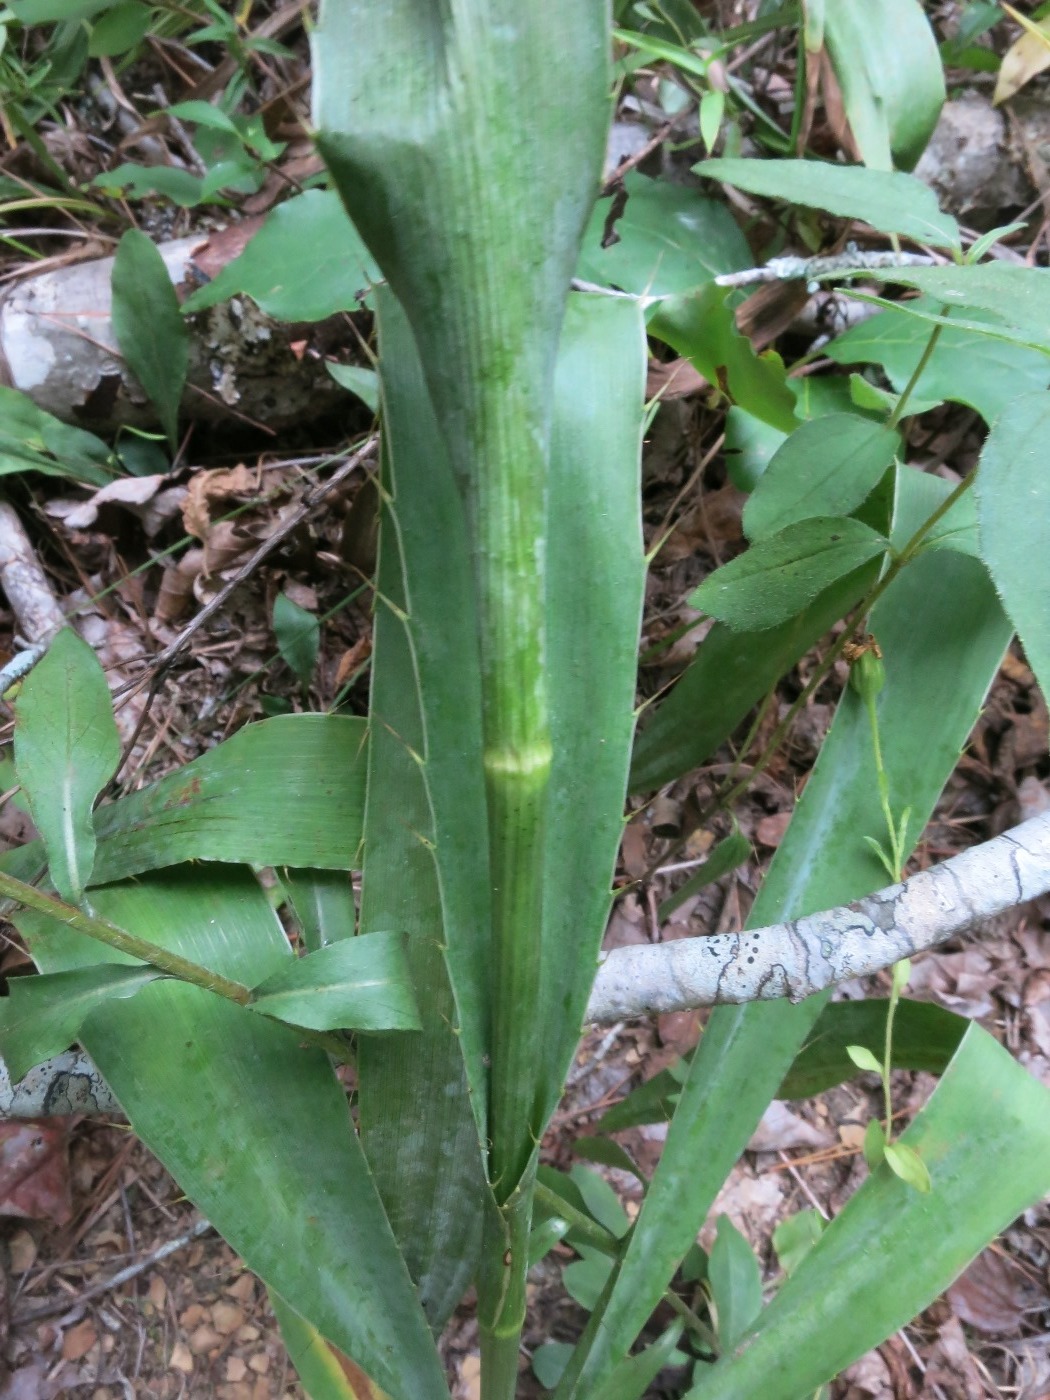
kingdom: Plantae
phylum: Tracheophyta
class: Magnoliopsida
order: Apiales
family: Apiaceae
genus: Eryngium
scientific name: Eryngium yuccifolium
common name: Button eryngo
